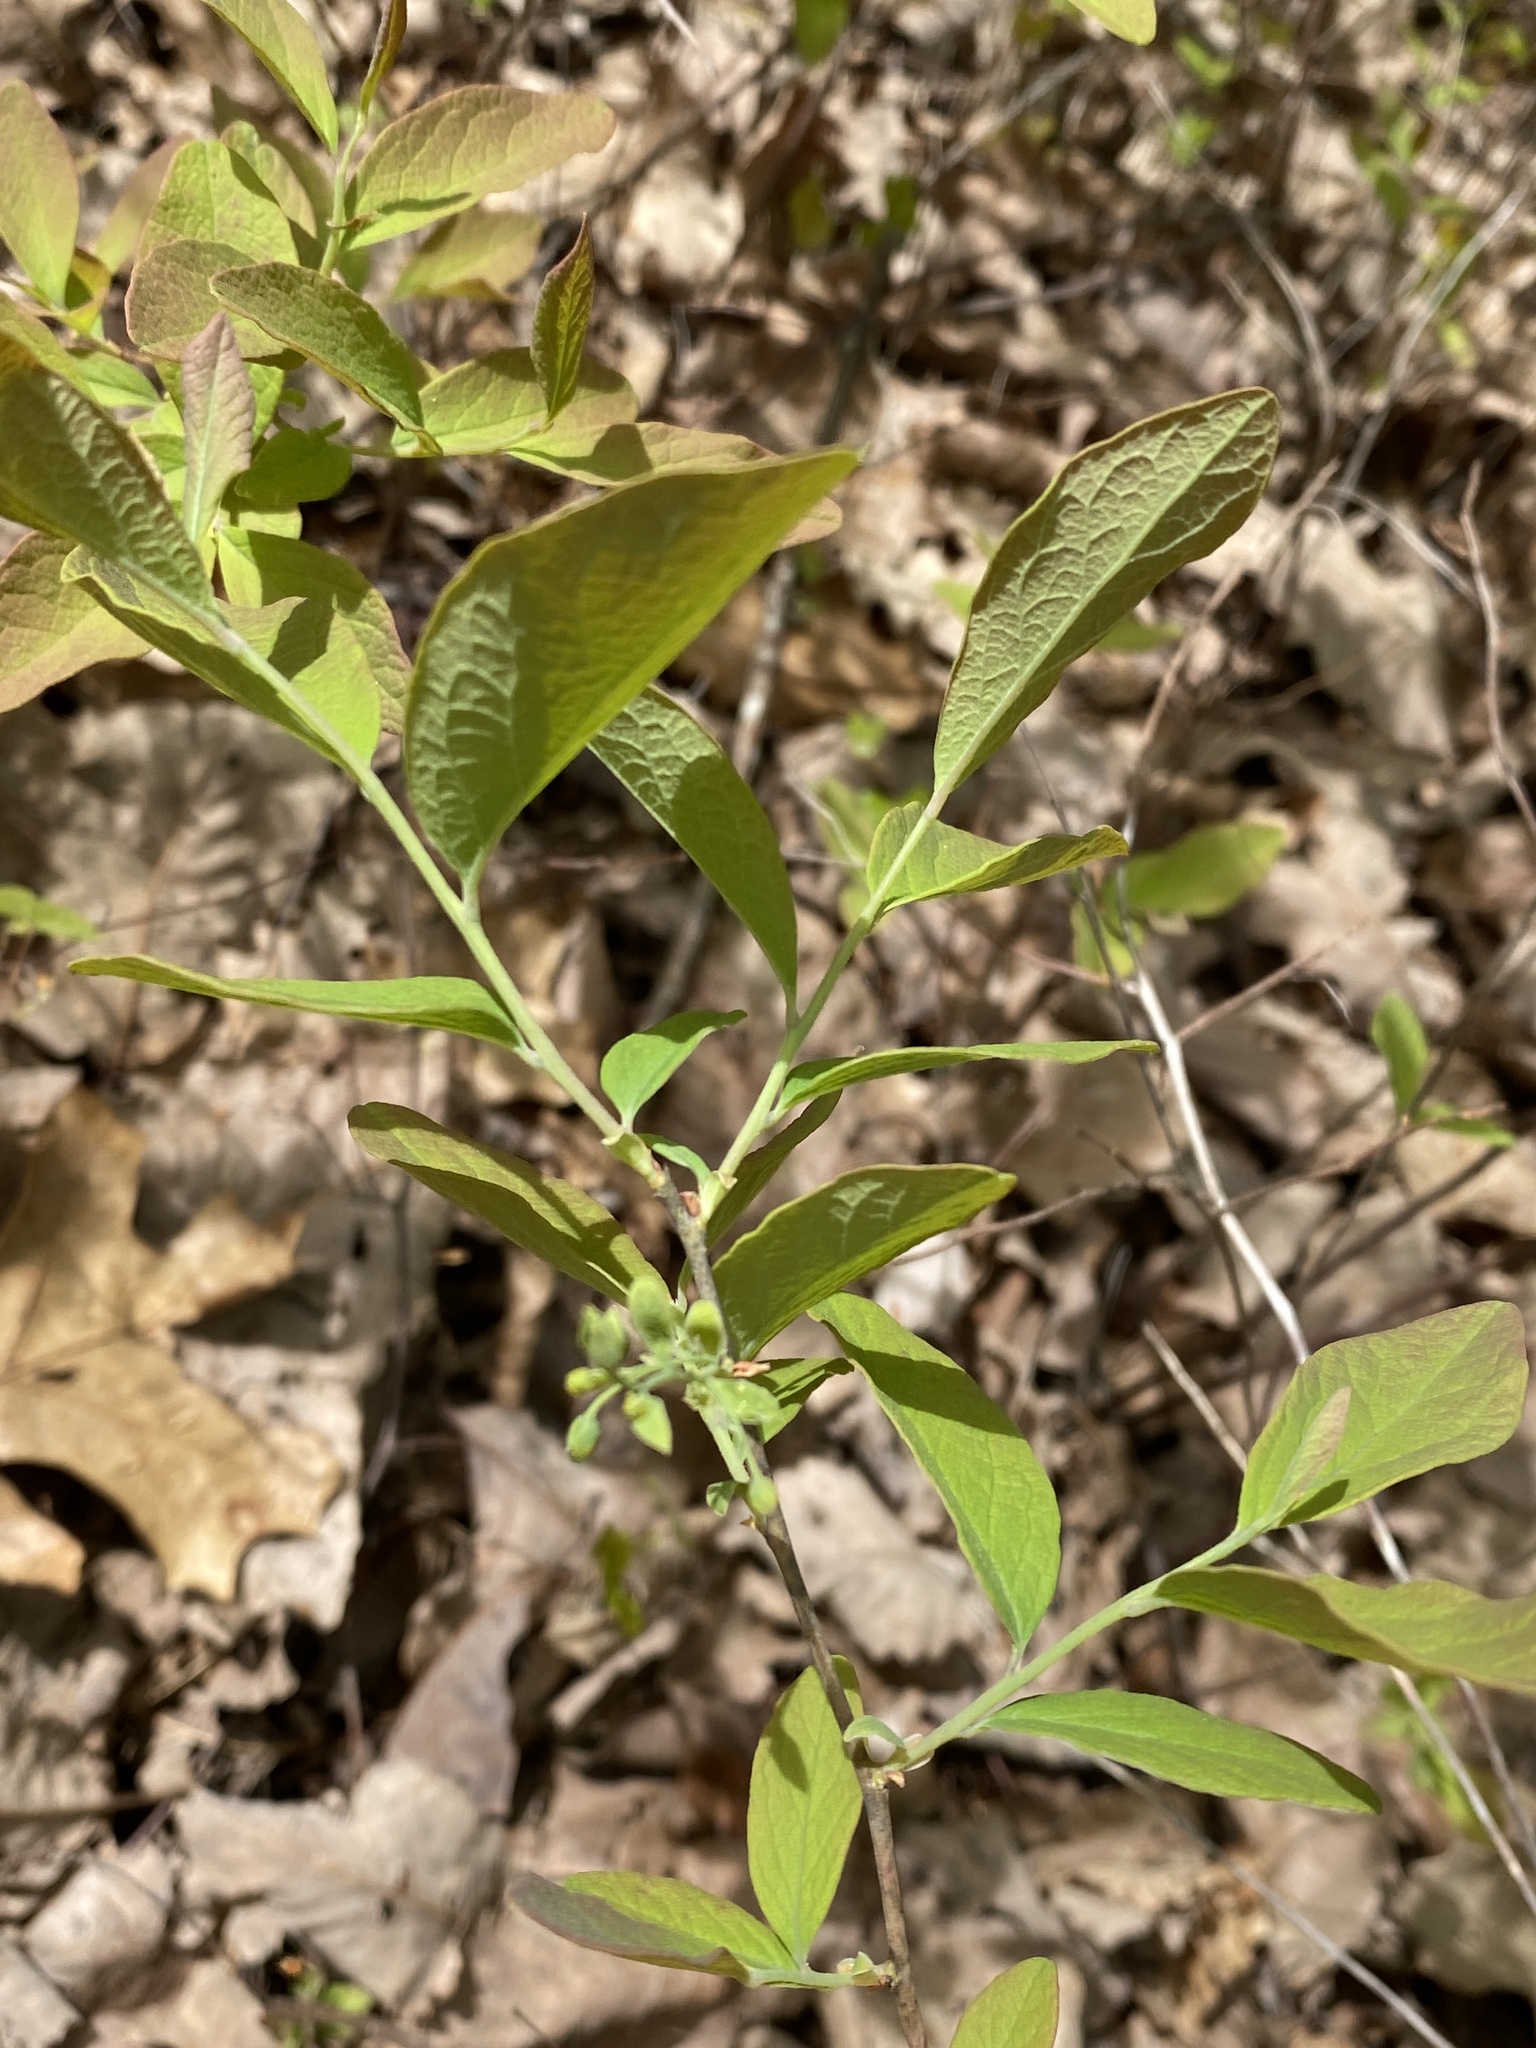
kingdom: Plantae
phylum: Tracheophyta
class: Magnoliopsida
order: Ericales
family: Ericaceae
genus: Gaylussacia
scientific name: Gaylussacia baccata
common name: Black huckleberry
